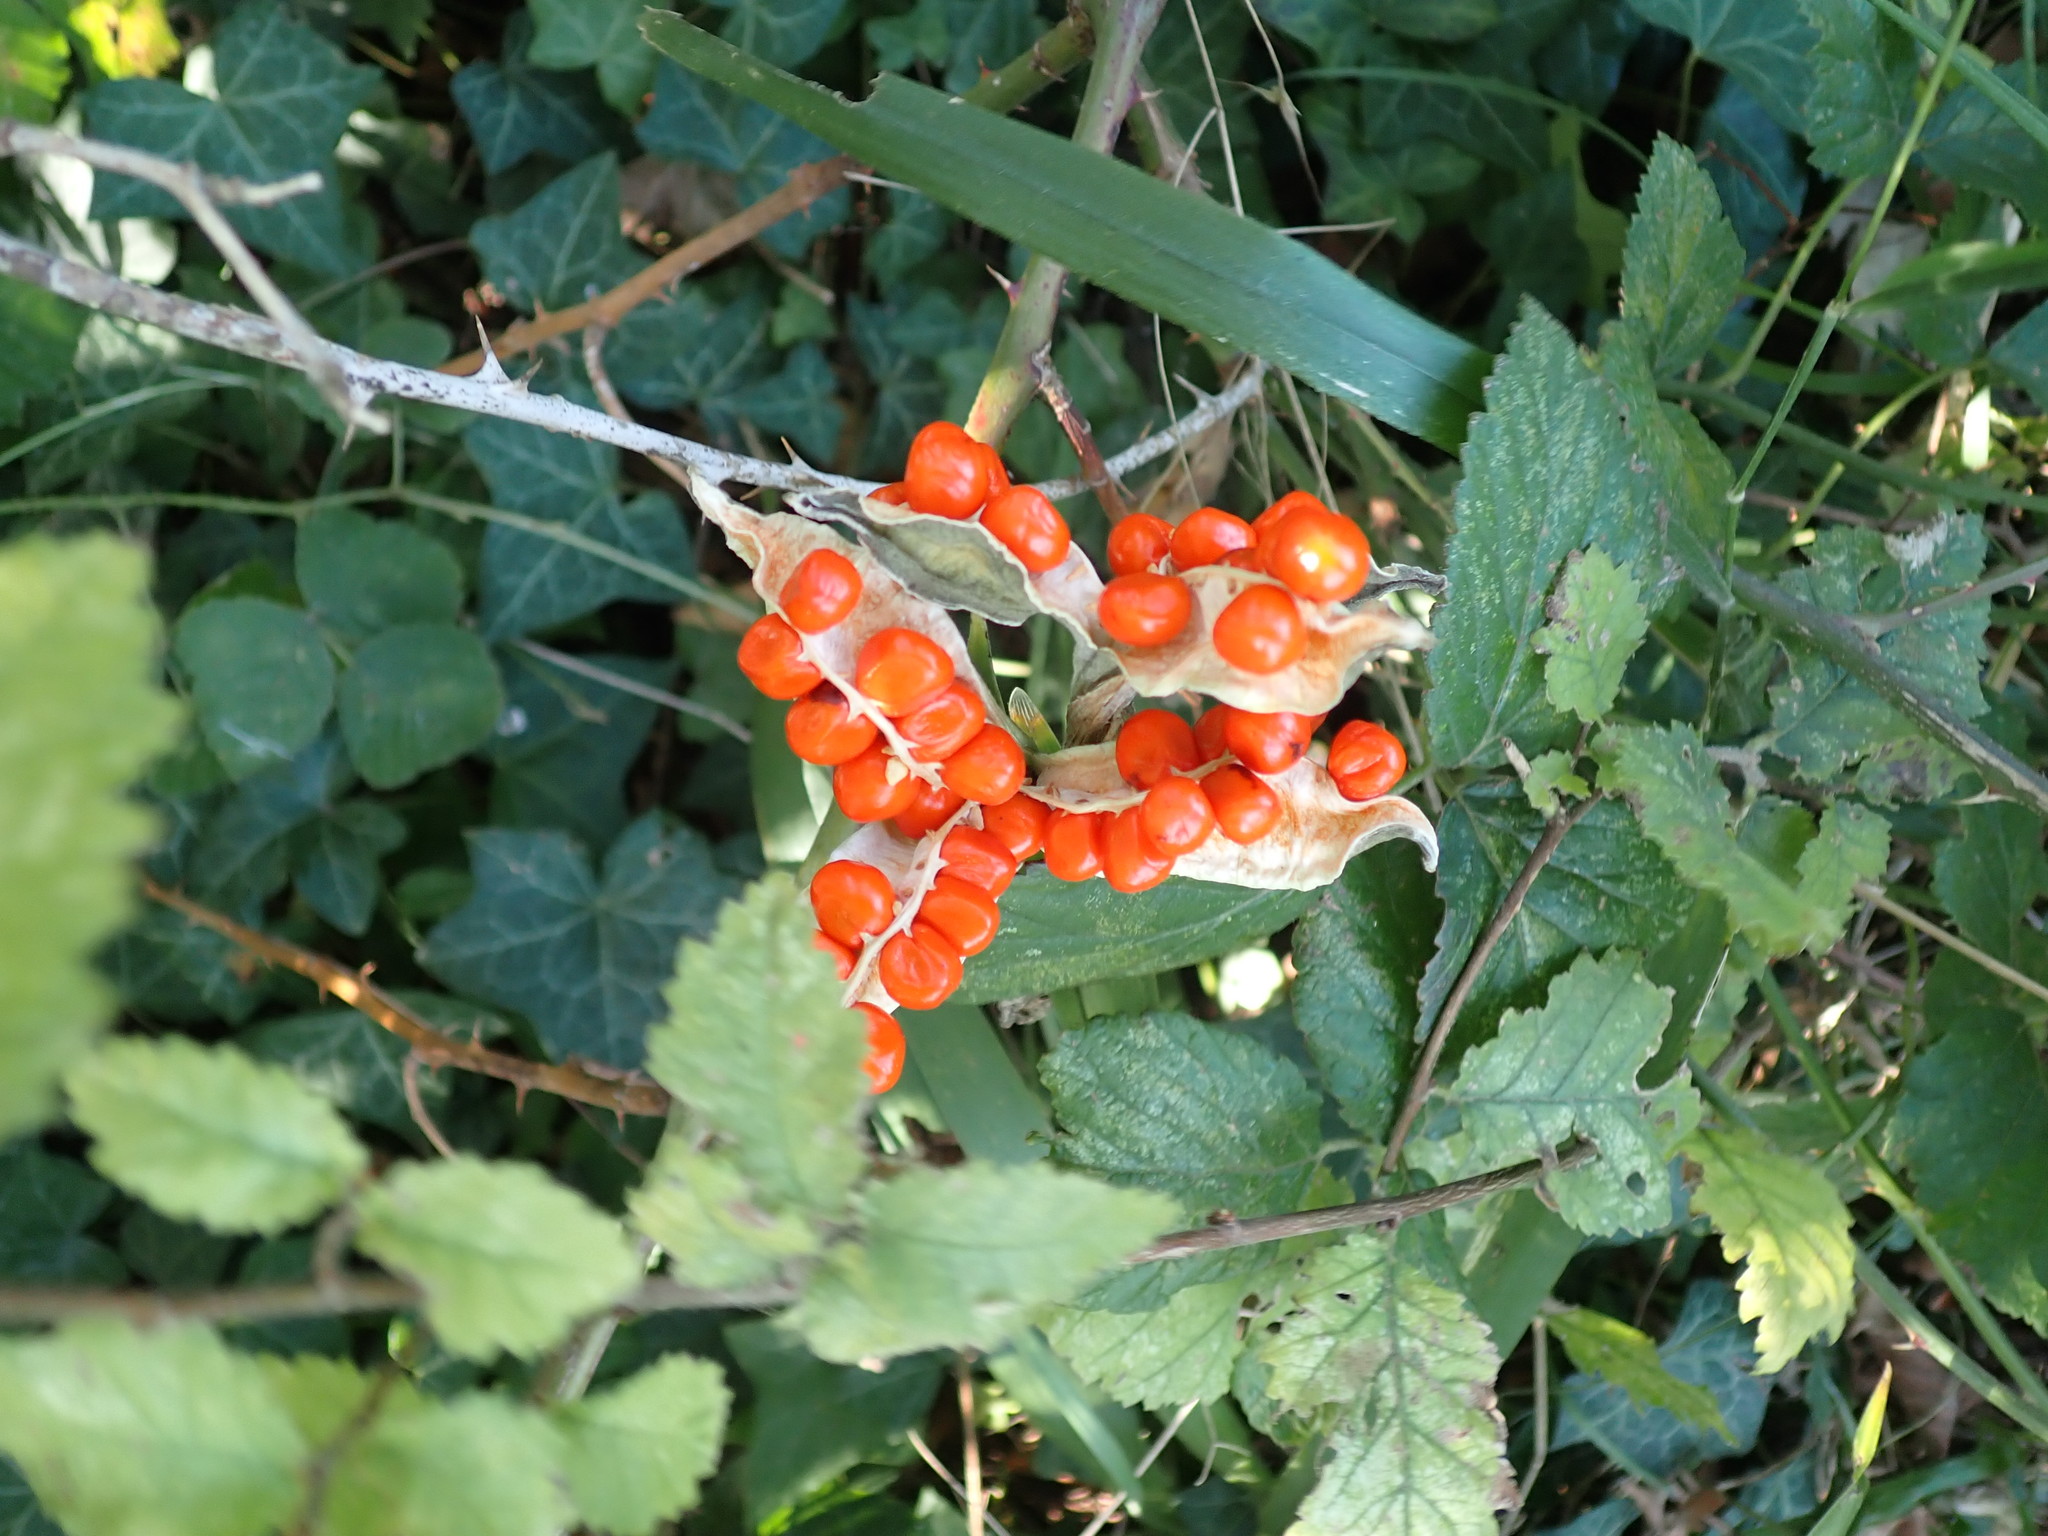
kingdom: Plantae
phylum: Tracheophyta
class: Liliopsida
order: Asparagales
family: Iridaceae
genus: Iris
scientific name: Iris foetidissima
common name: Stinking iris
